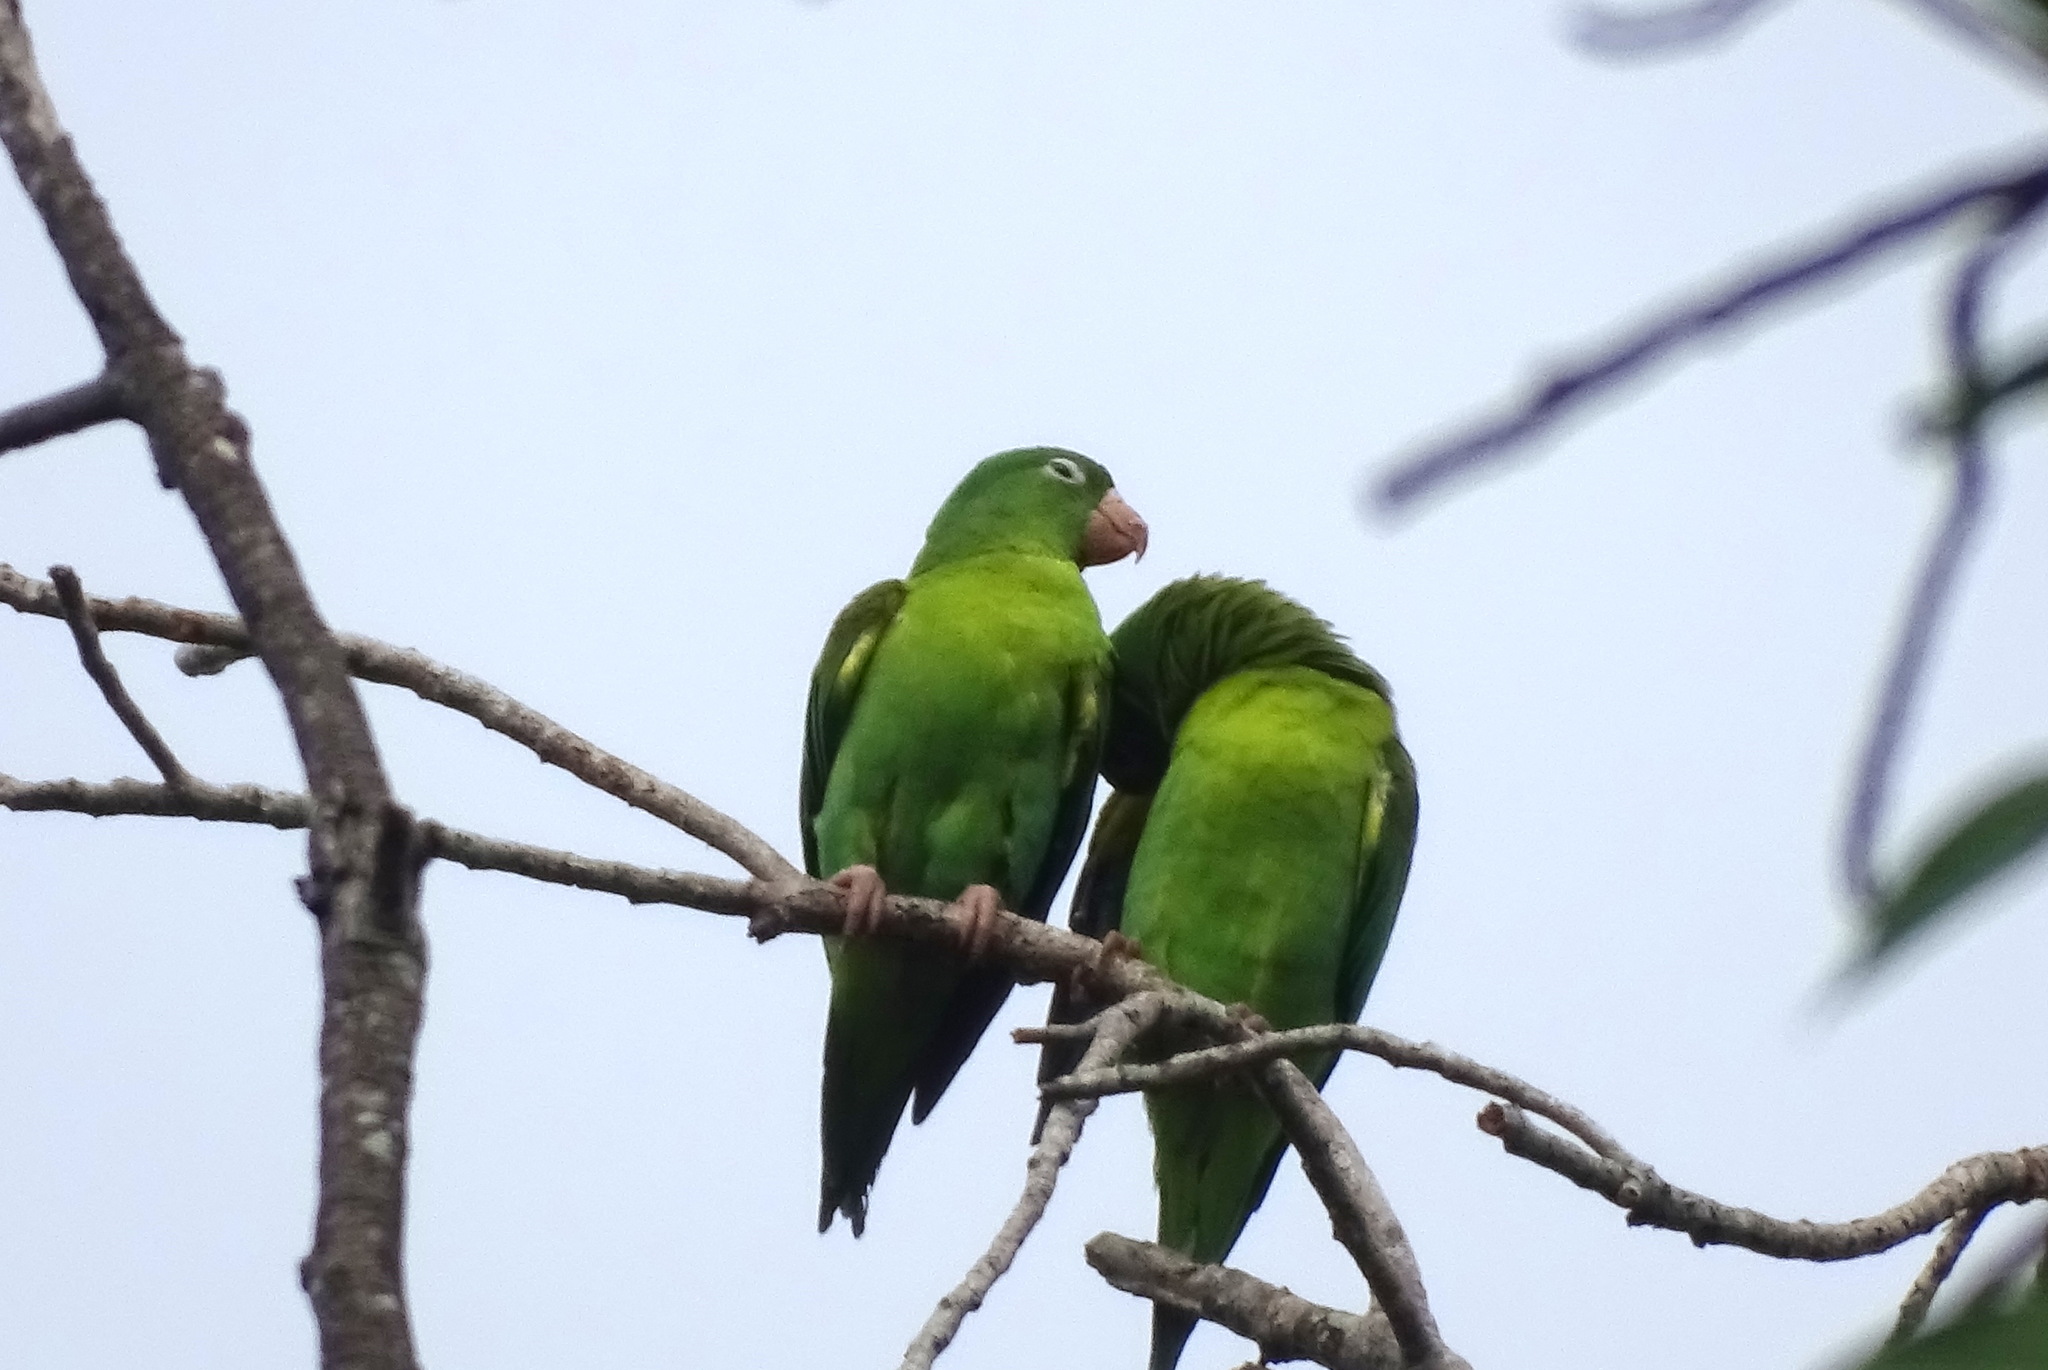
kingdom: Animalia
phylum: Chordata
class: Aves
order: Psittaciformes
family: Psittacidae
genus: Brotogeris
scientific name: Brotogeris jugularis
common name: Orange-chinned parakeet
